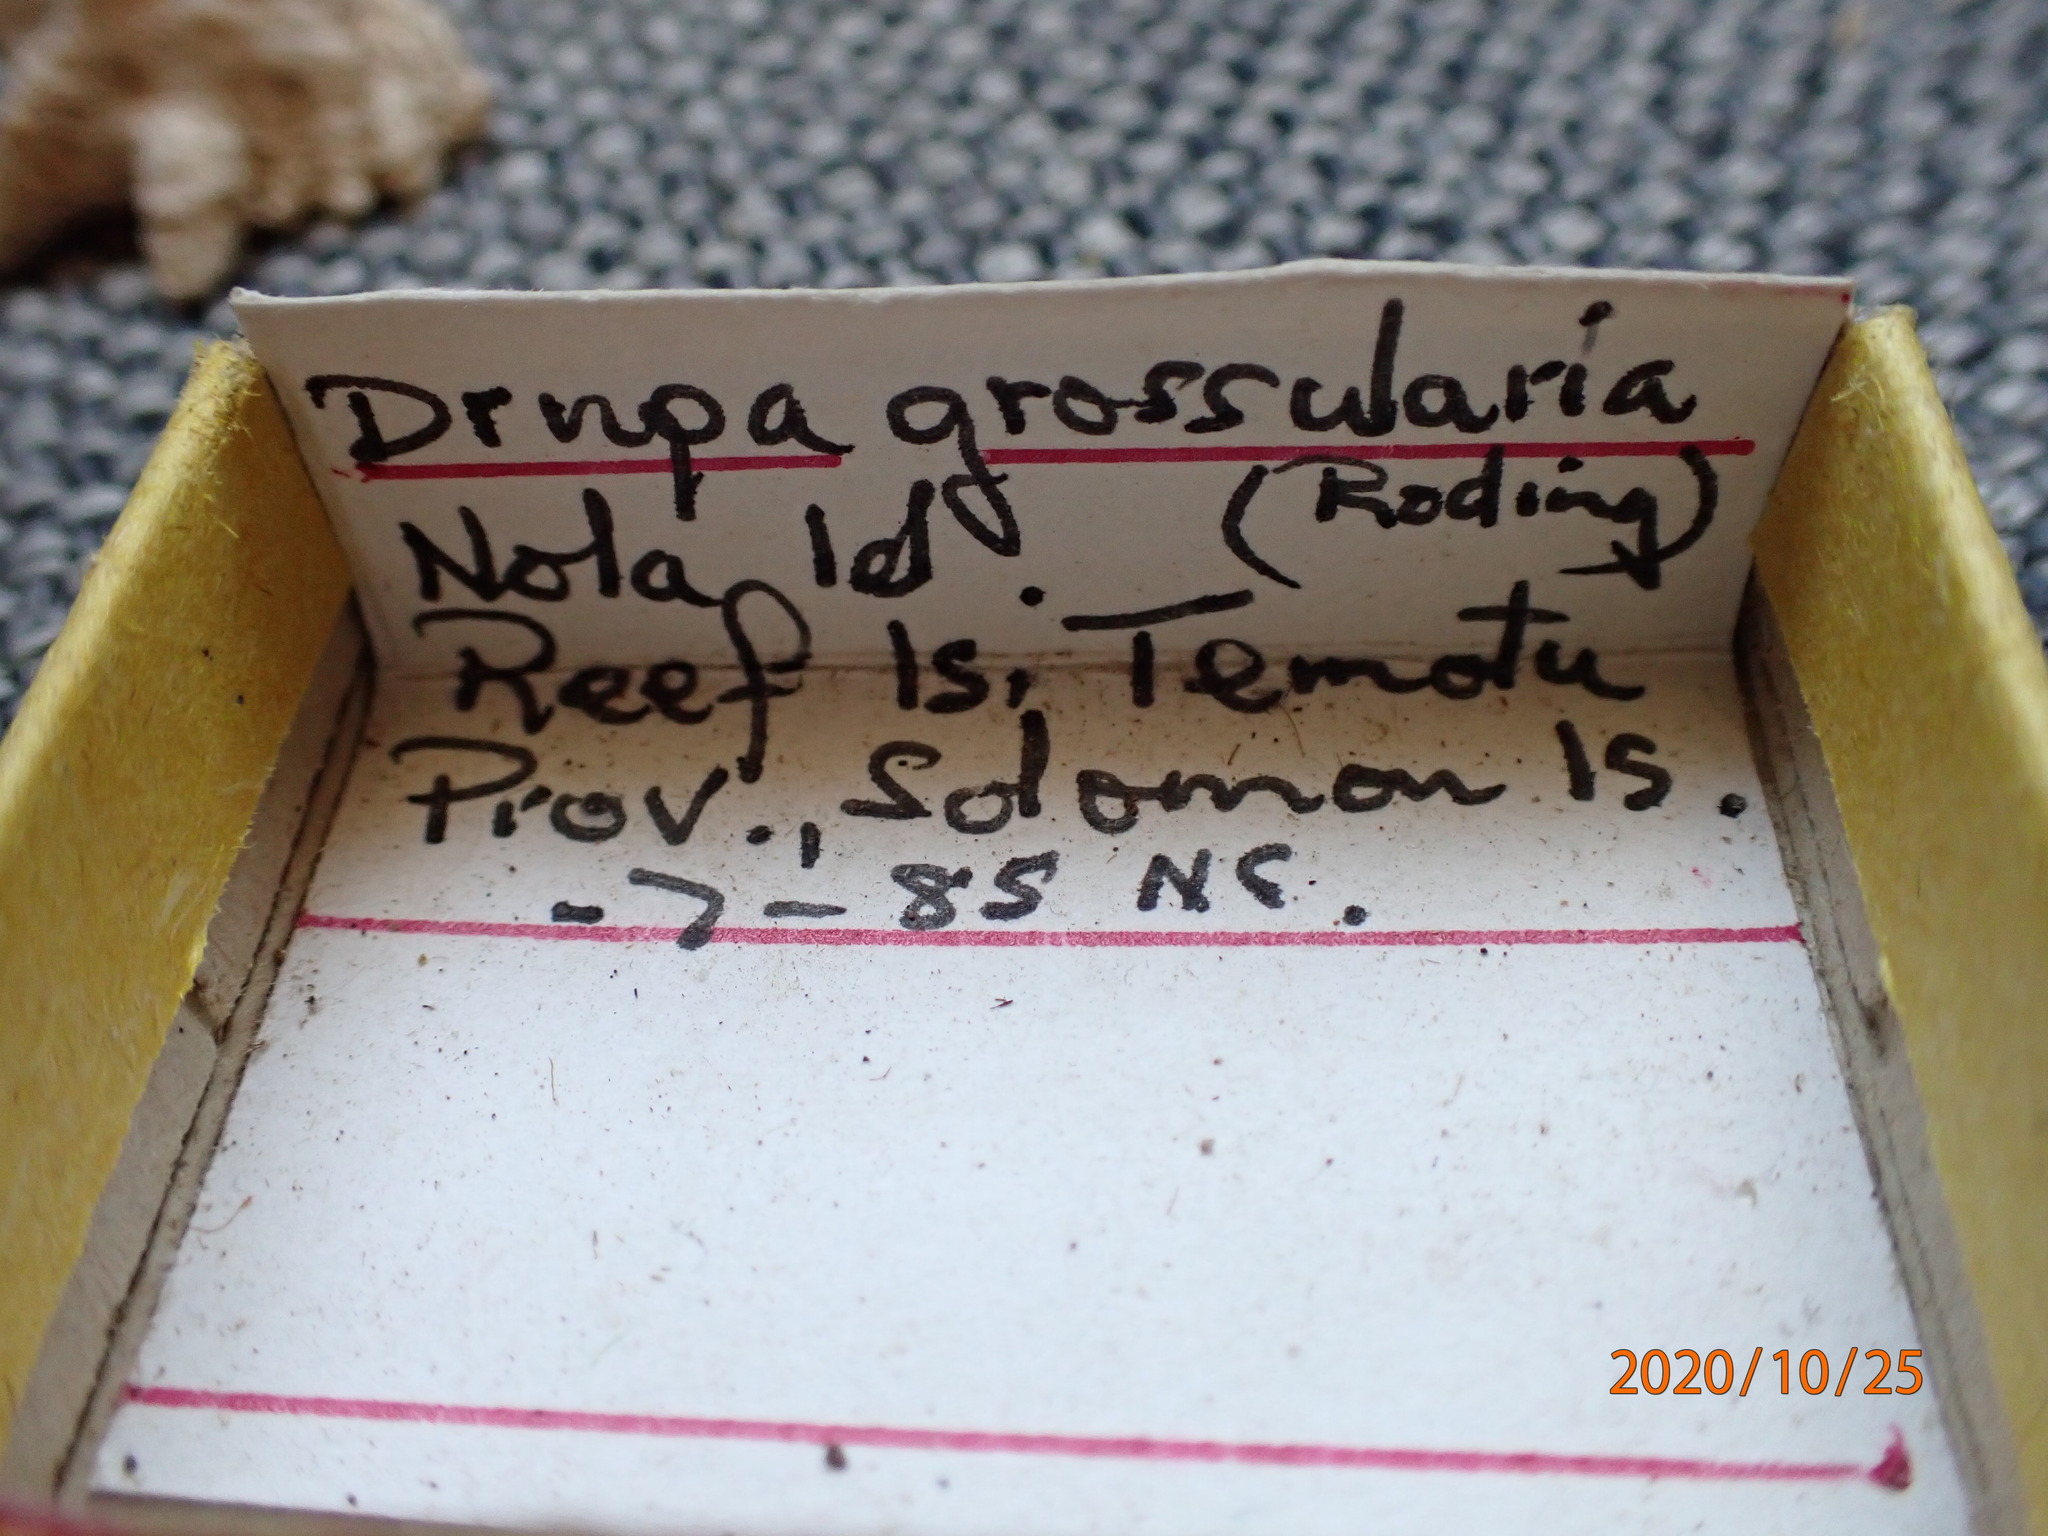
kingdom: Animalia
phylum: Mollusca
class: Gastropoda
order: Neogastropoda
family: Muricidae
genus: Drupina
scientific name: Drupina grossularia
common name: Digitate pacific drupe
